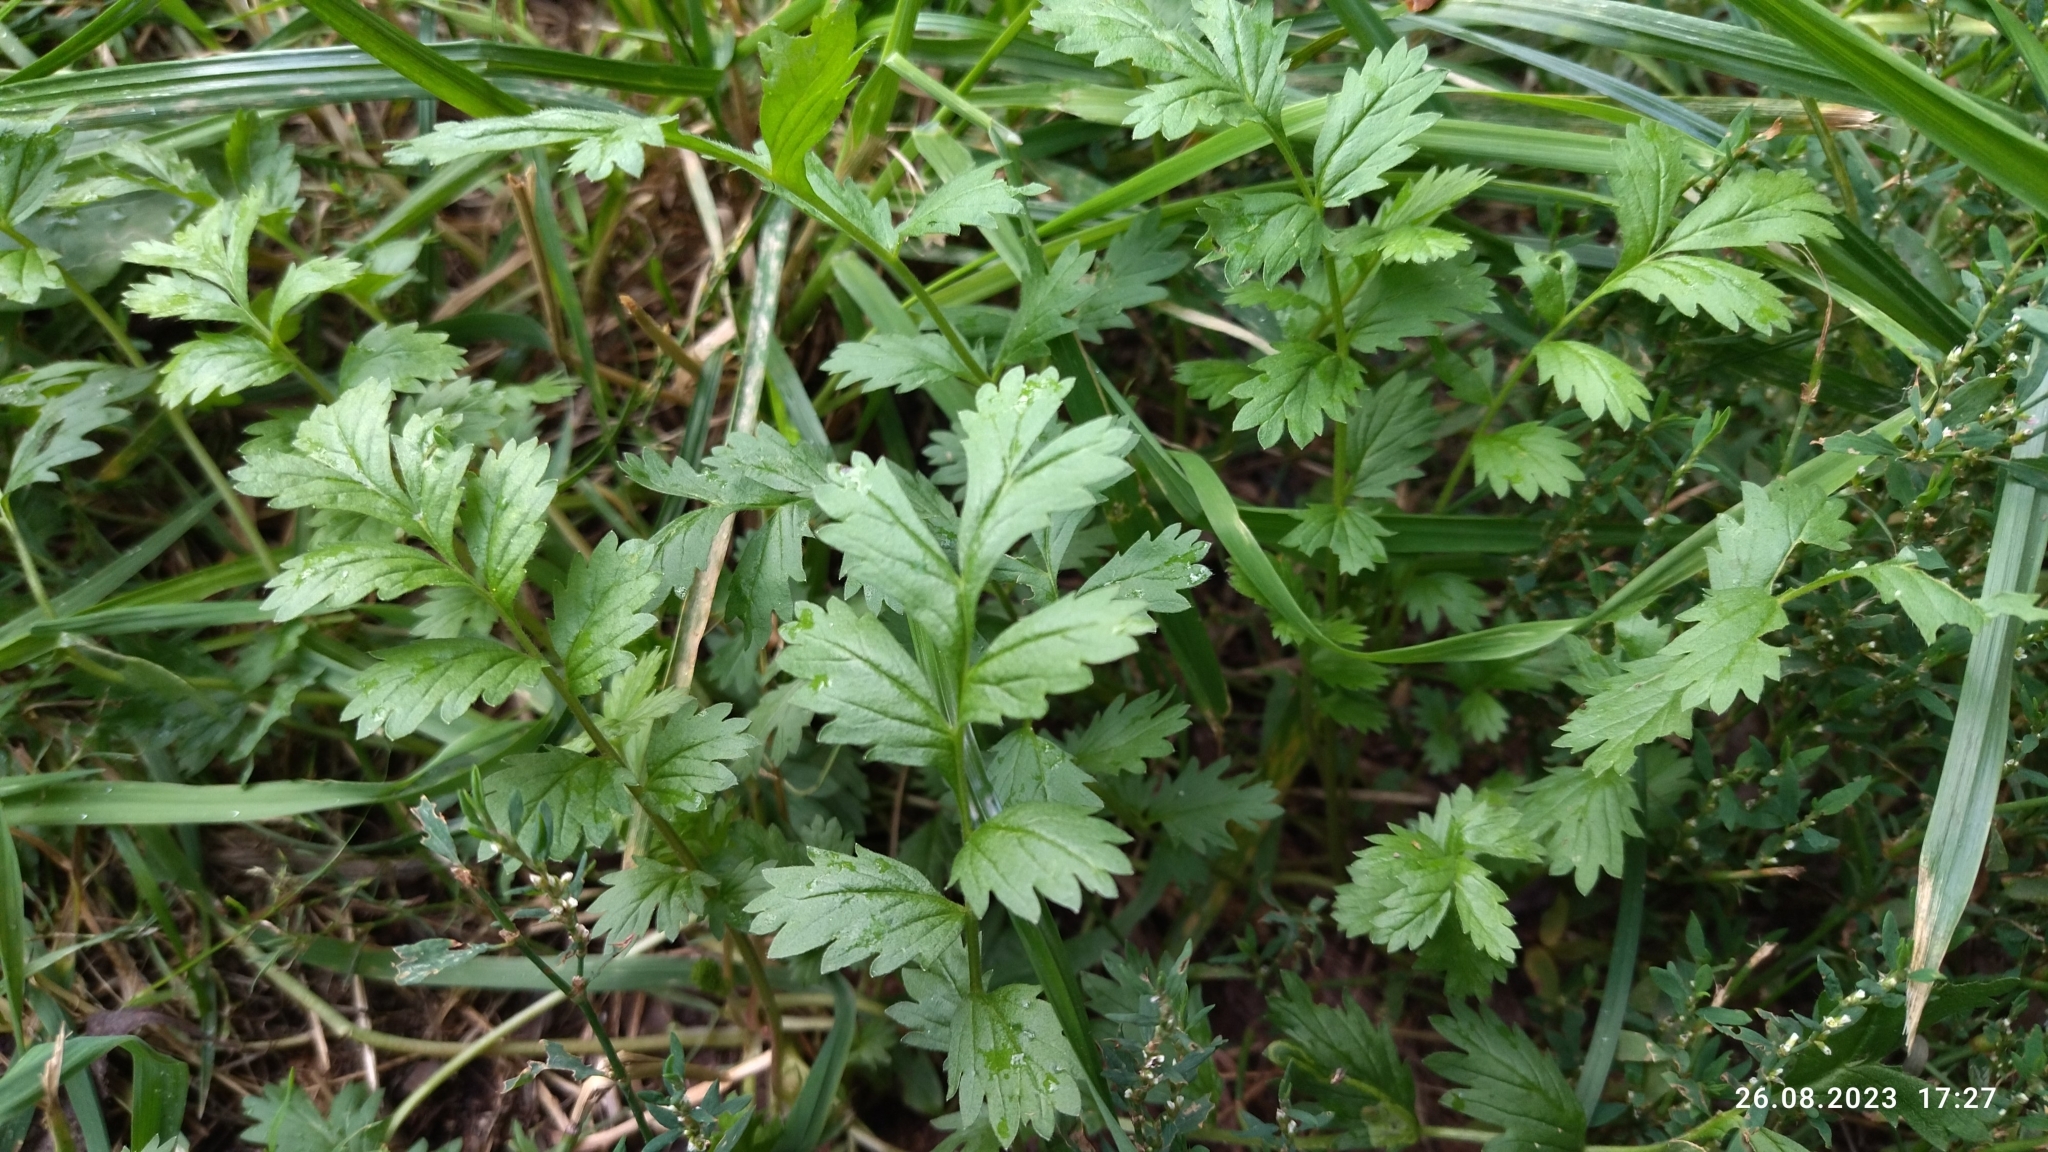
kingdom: Plantae
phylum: Tracheophyta
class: Magnoliopsida
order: Rosales
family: Rosaceae
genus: Potentilla
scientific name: Potentilla supina
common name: Prostrate cinquefoil
